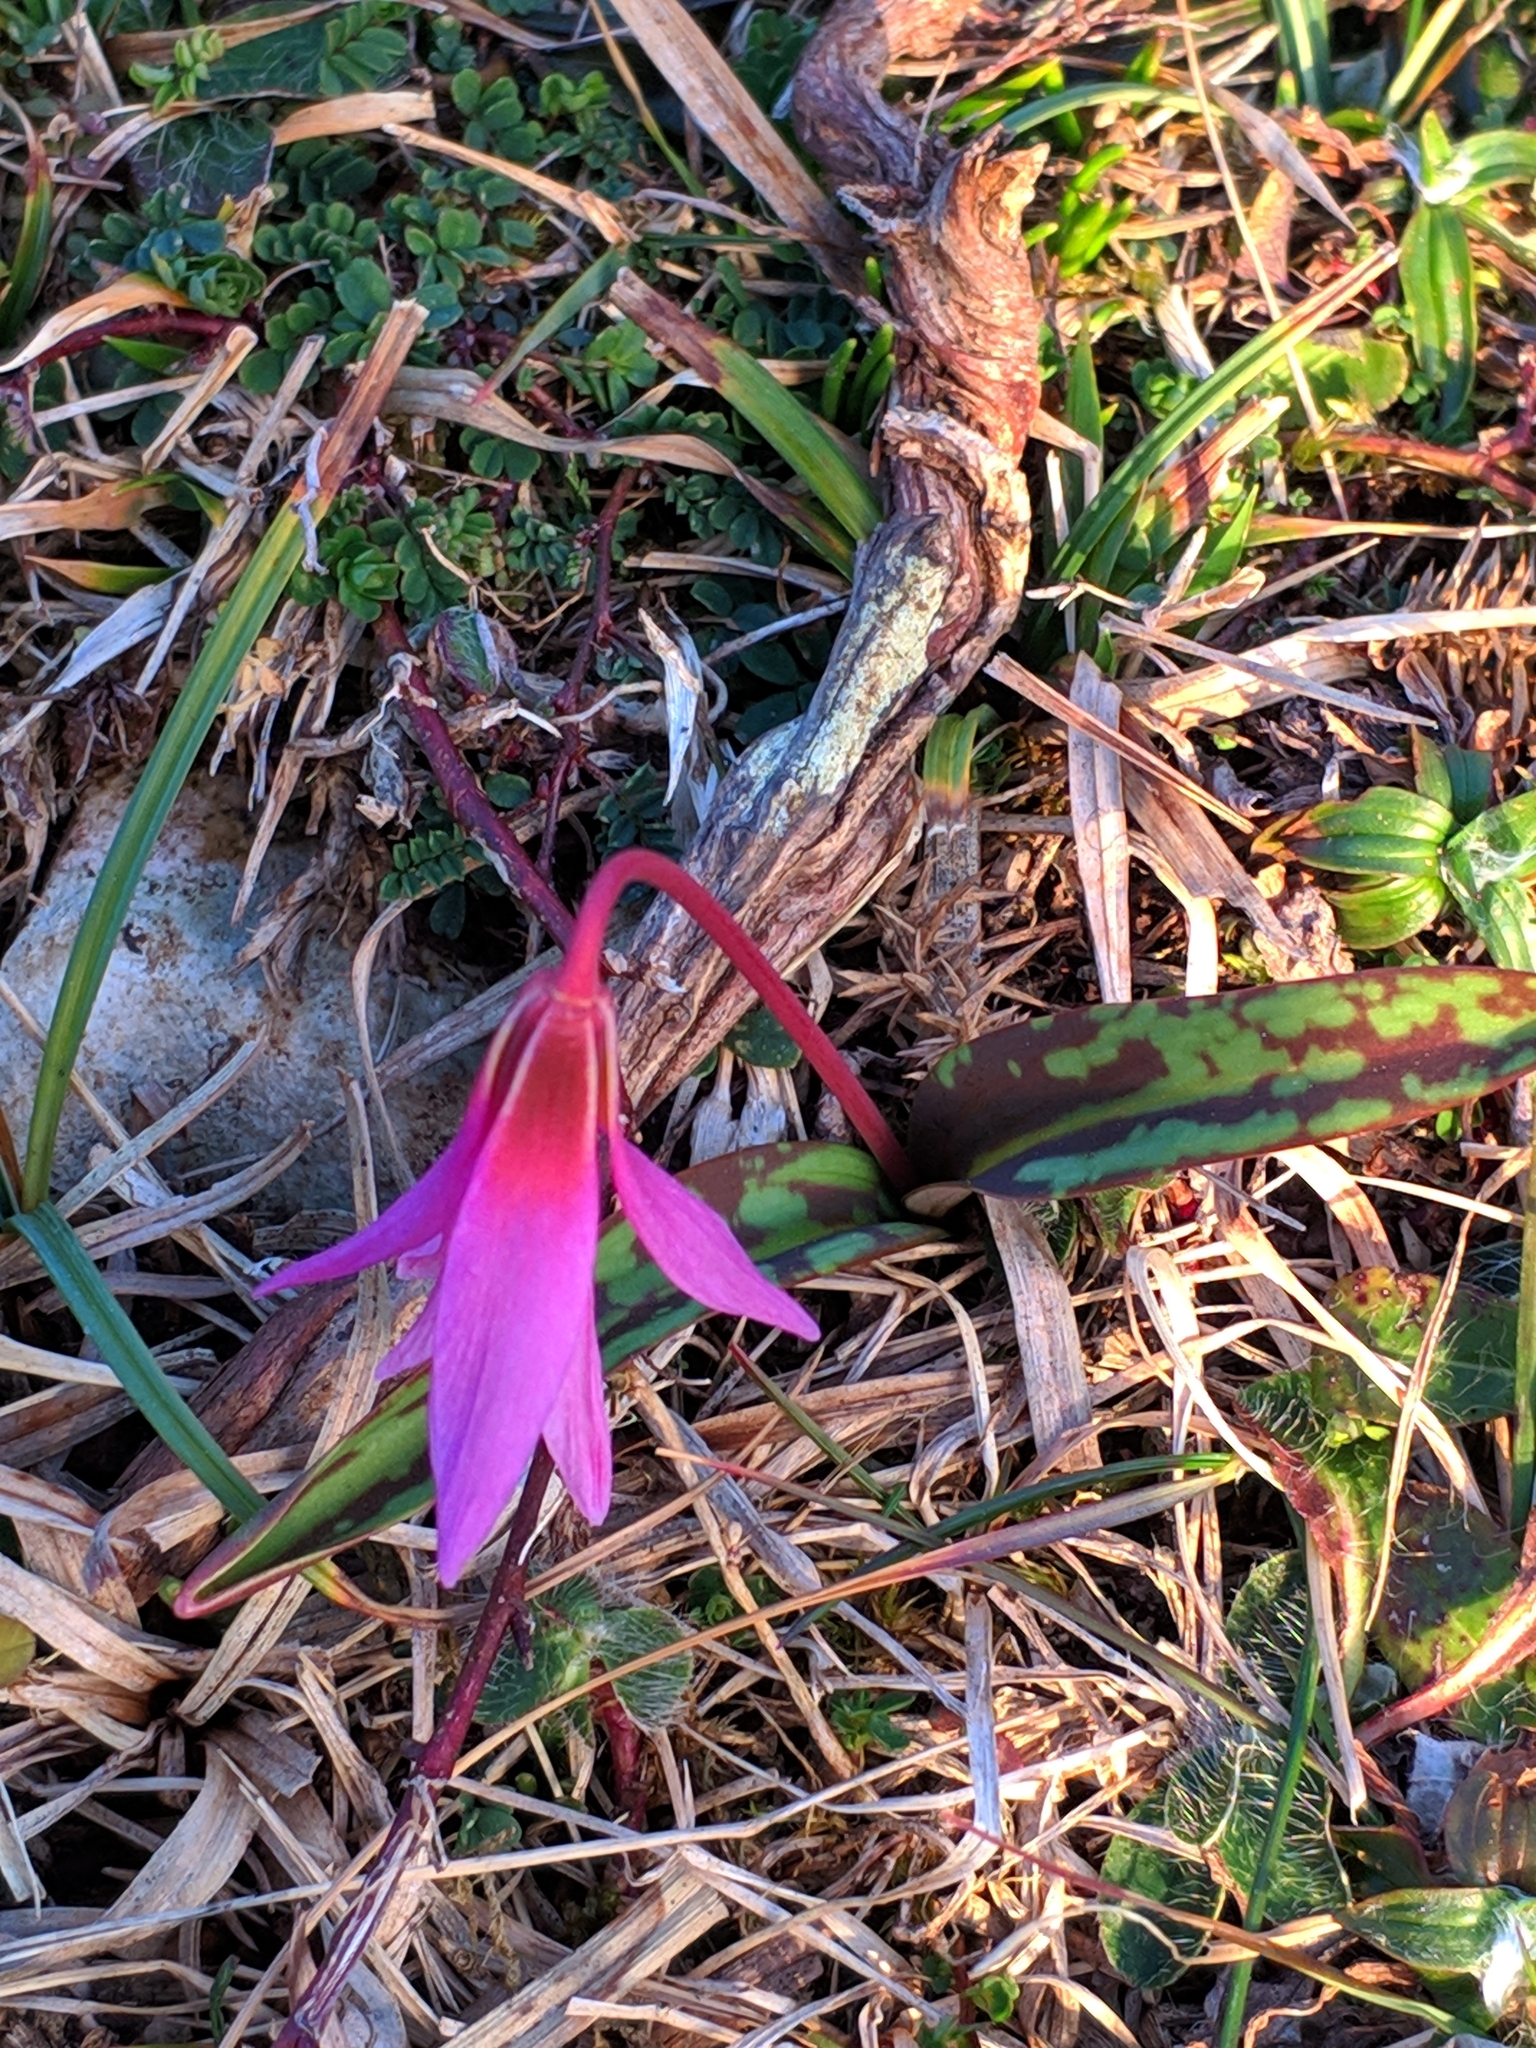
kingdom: Plantae
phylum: Tracheophyta
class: Liliopsida
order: Liliales
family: Liliaceae
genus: Erythronium
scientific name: Erythronium dens-canis
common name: Dog's-tooth-violet
